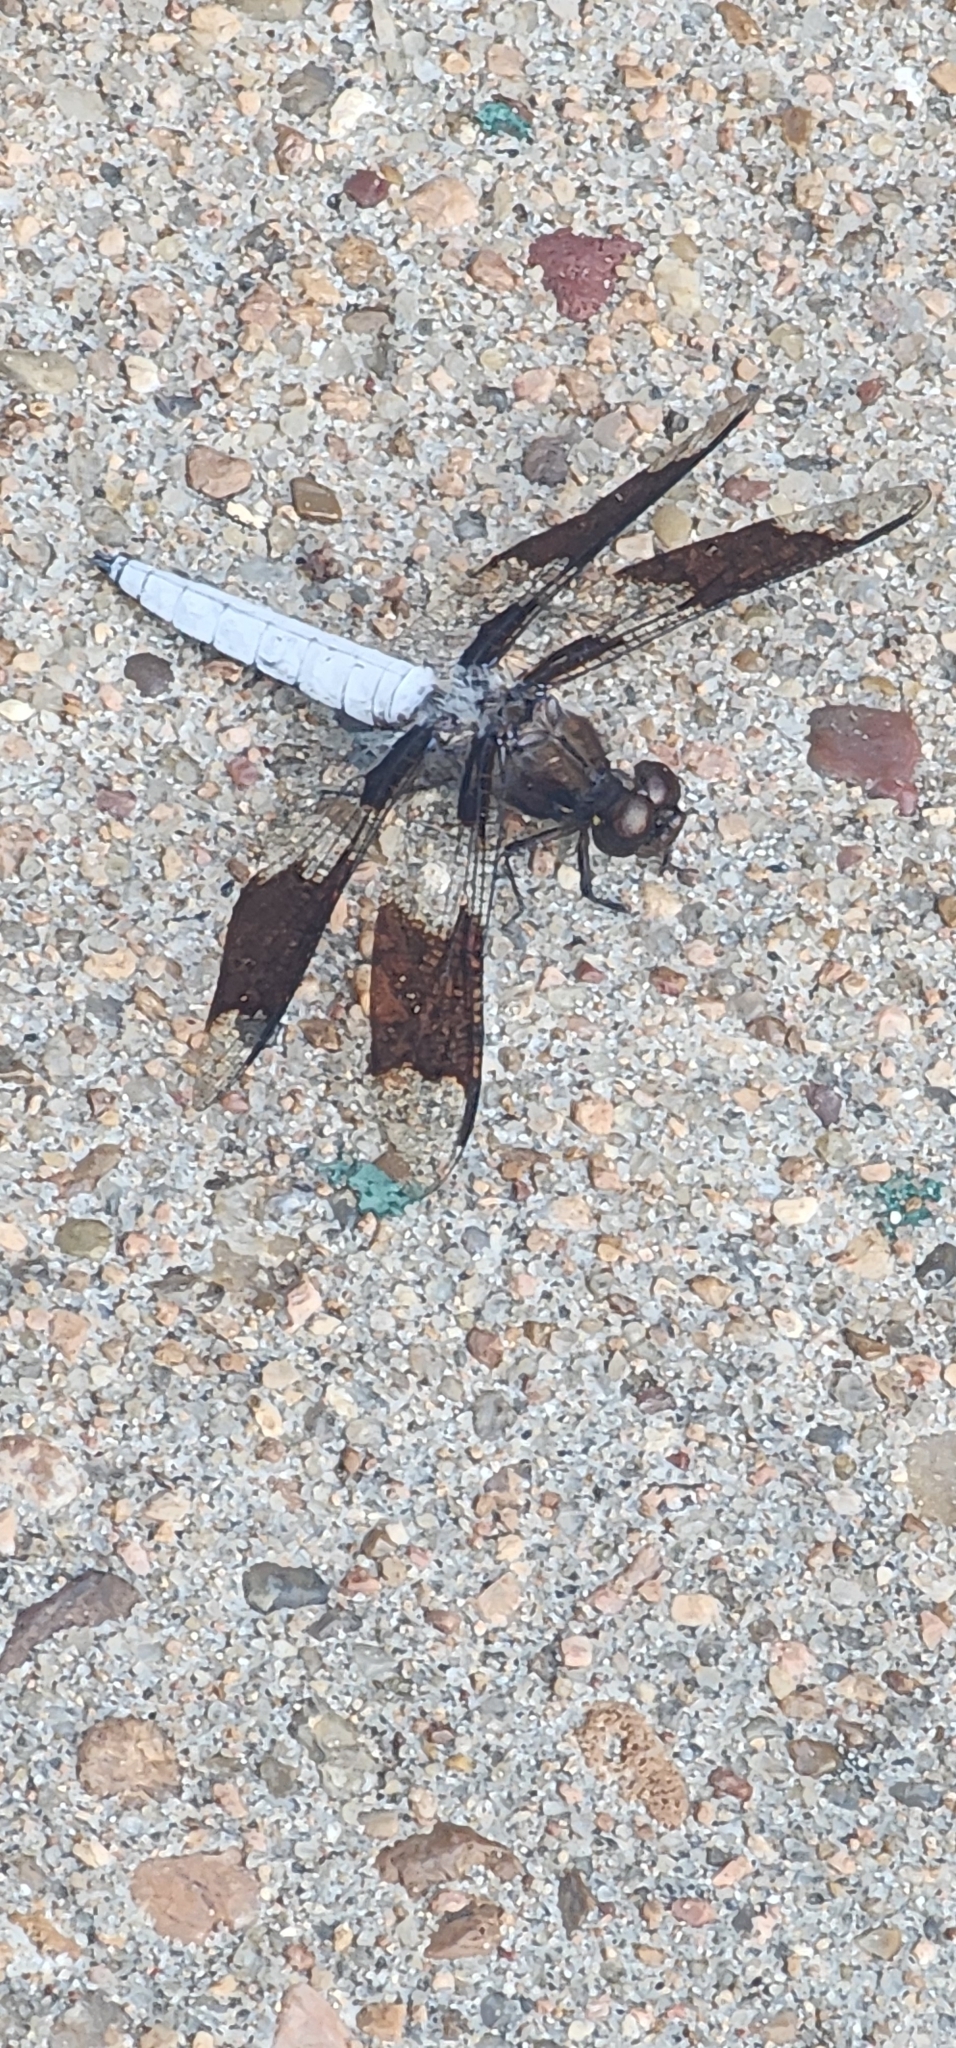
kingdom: Animalia
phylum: Arthropoda
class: Insecta
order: Odonata
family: Libellulidae
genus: Plathemis
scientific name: Plathemis lydia
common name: Common whitetail
